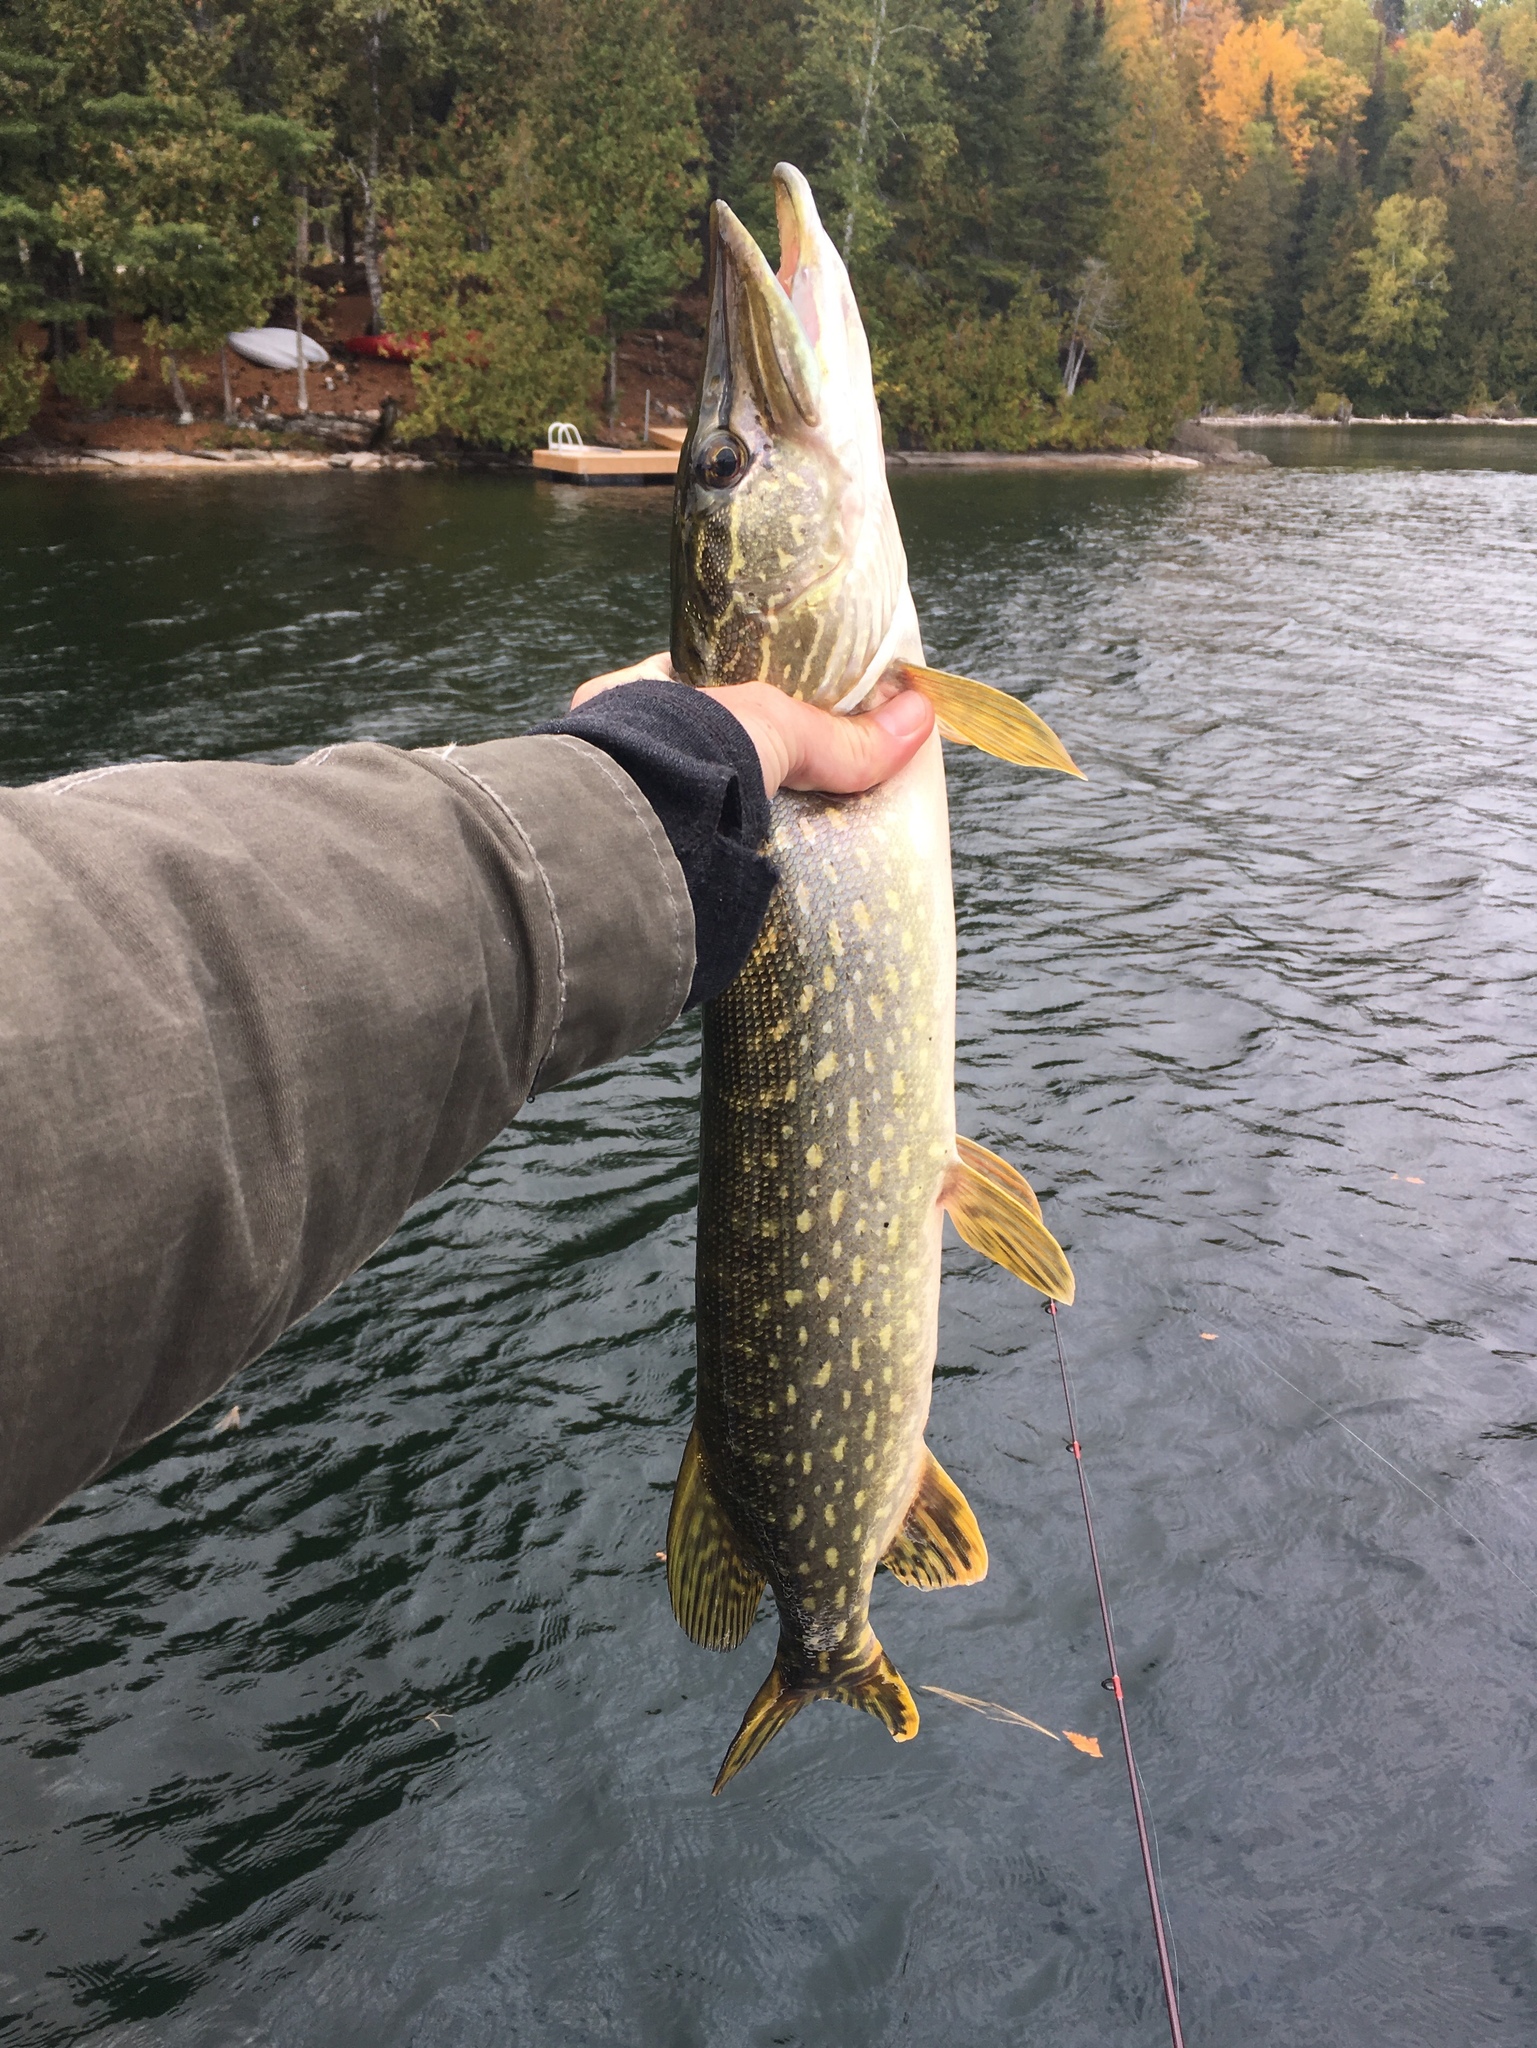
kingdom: Animalia
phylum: Chordata
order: Esociformes
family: Esocidae
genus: Esox
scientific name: Esox lucius
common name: Northern pike
